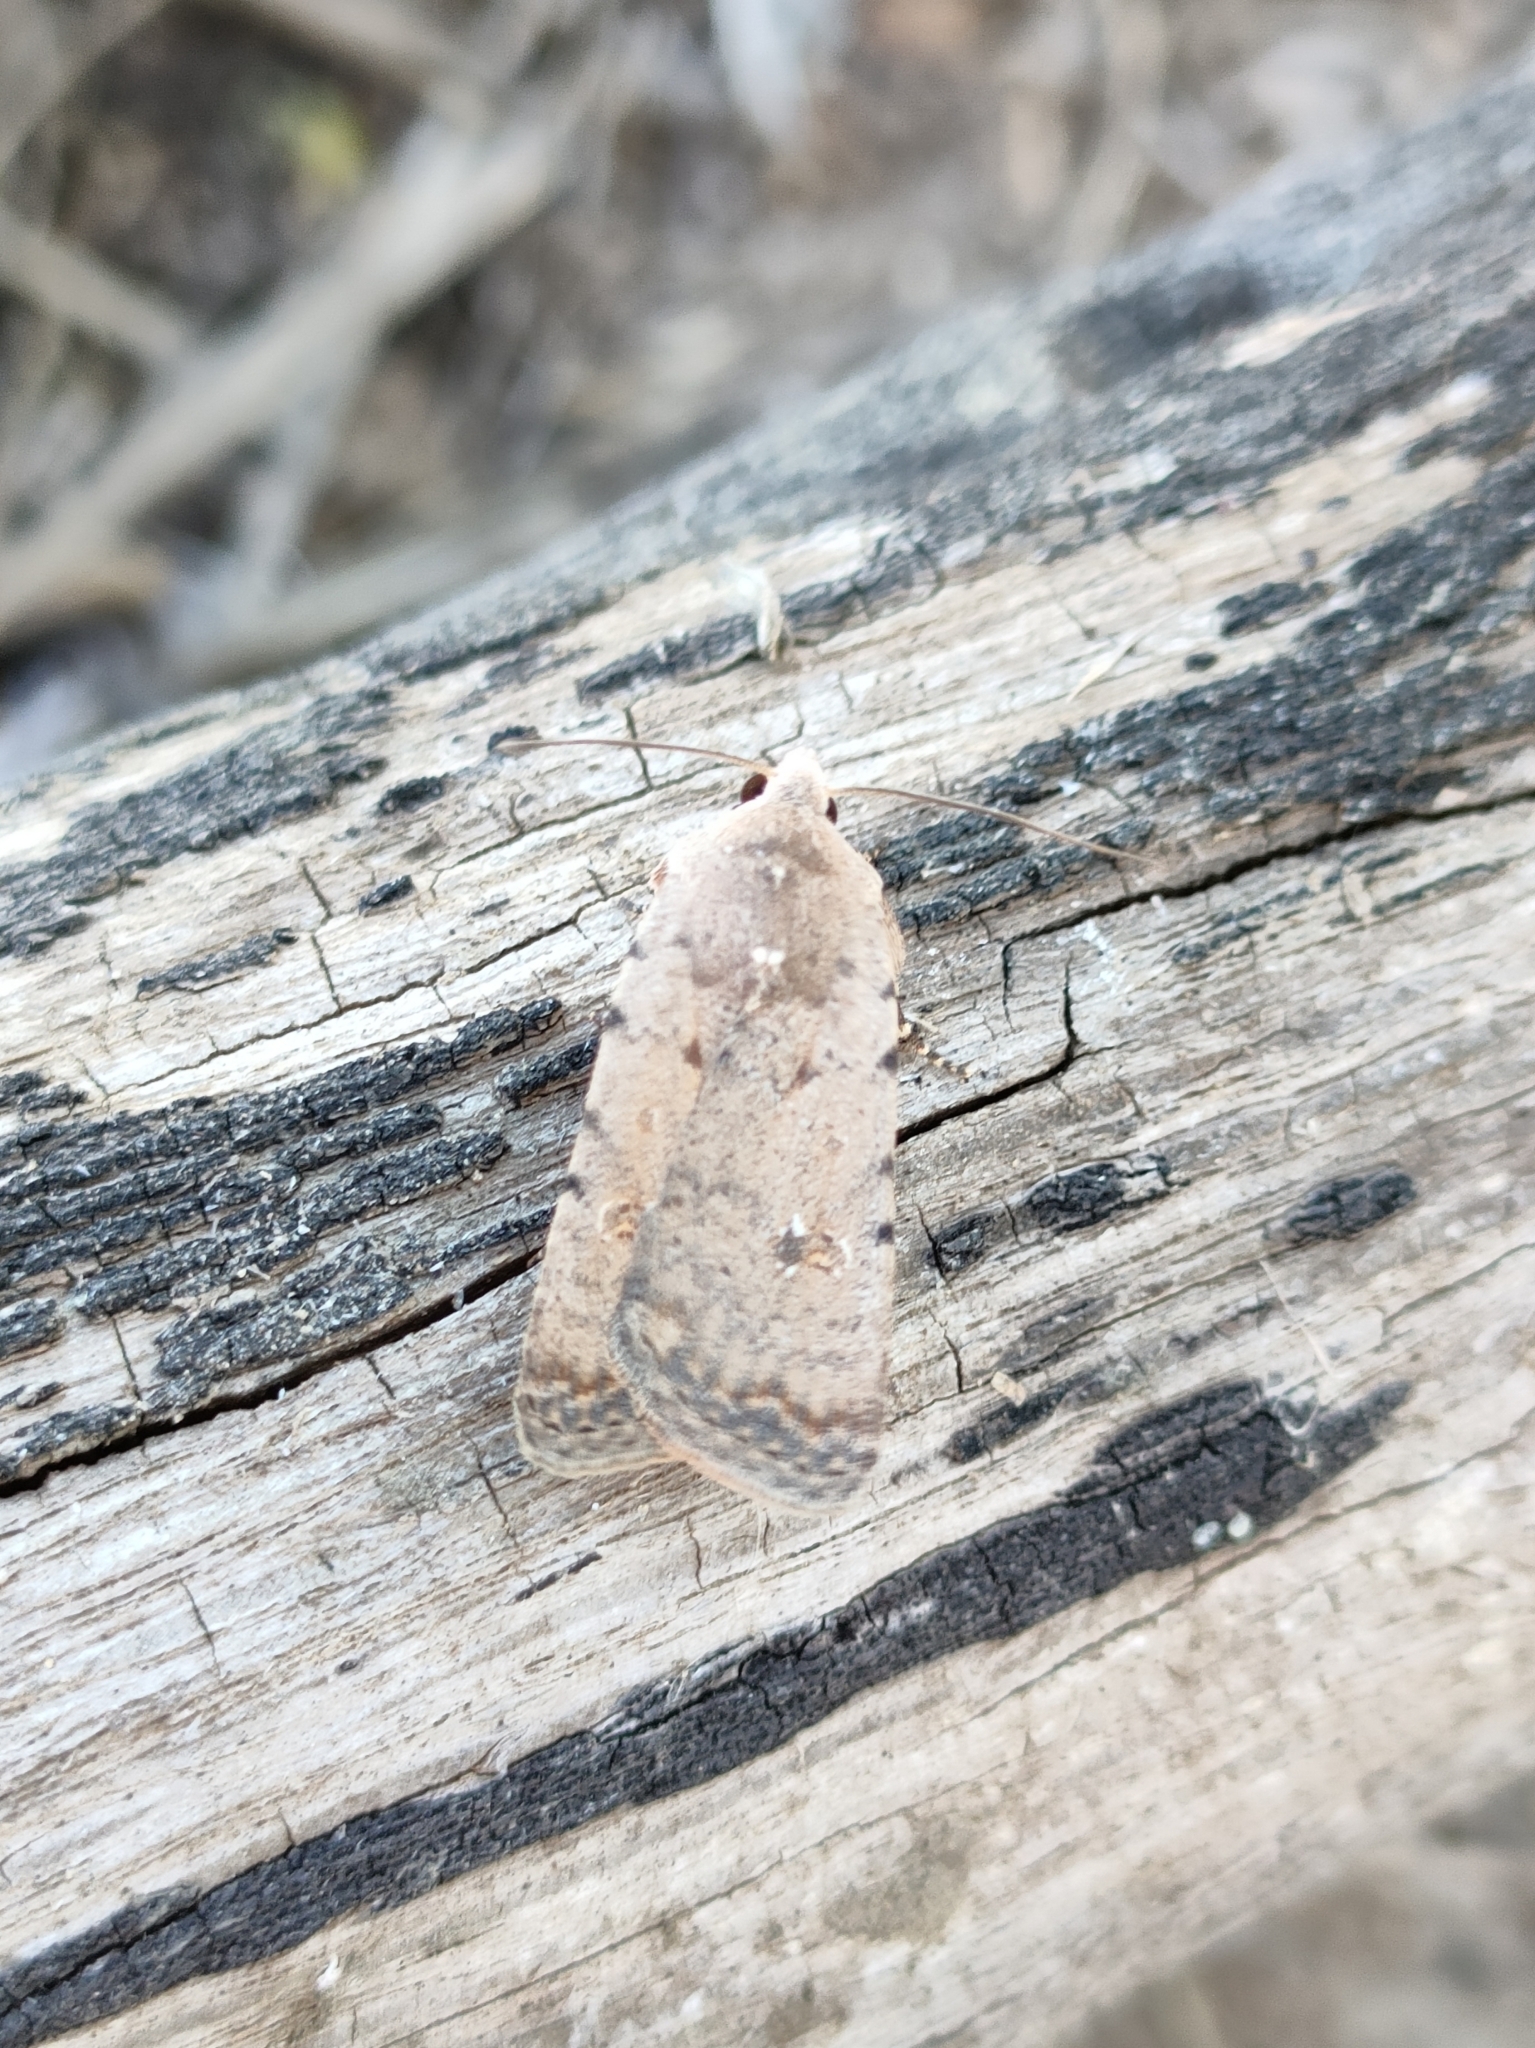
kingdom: Animalia
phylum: Arthropoda
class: Insecta
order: Lepidoptera
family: Noctuidae
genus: Caradrina
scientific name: Caradrina clavipalpis
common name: Pale mottled willow
